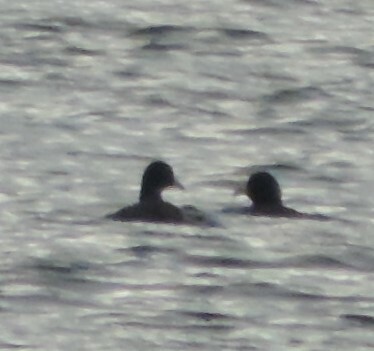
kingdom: Animalia
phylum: Chordata
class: Aves
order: Gruiformes
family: Rallidae
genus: Fulica
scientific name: Fulica americana
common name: American coot
